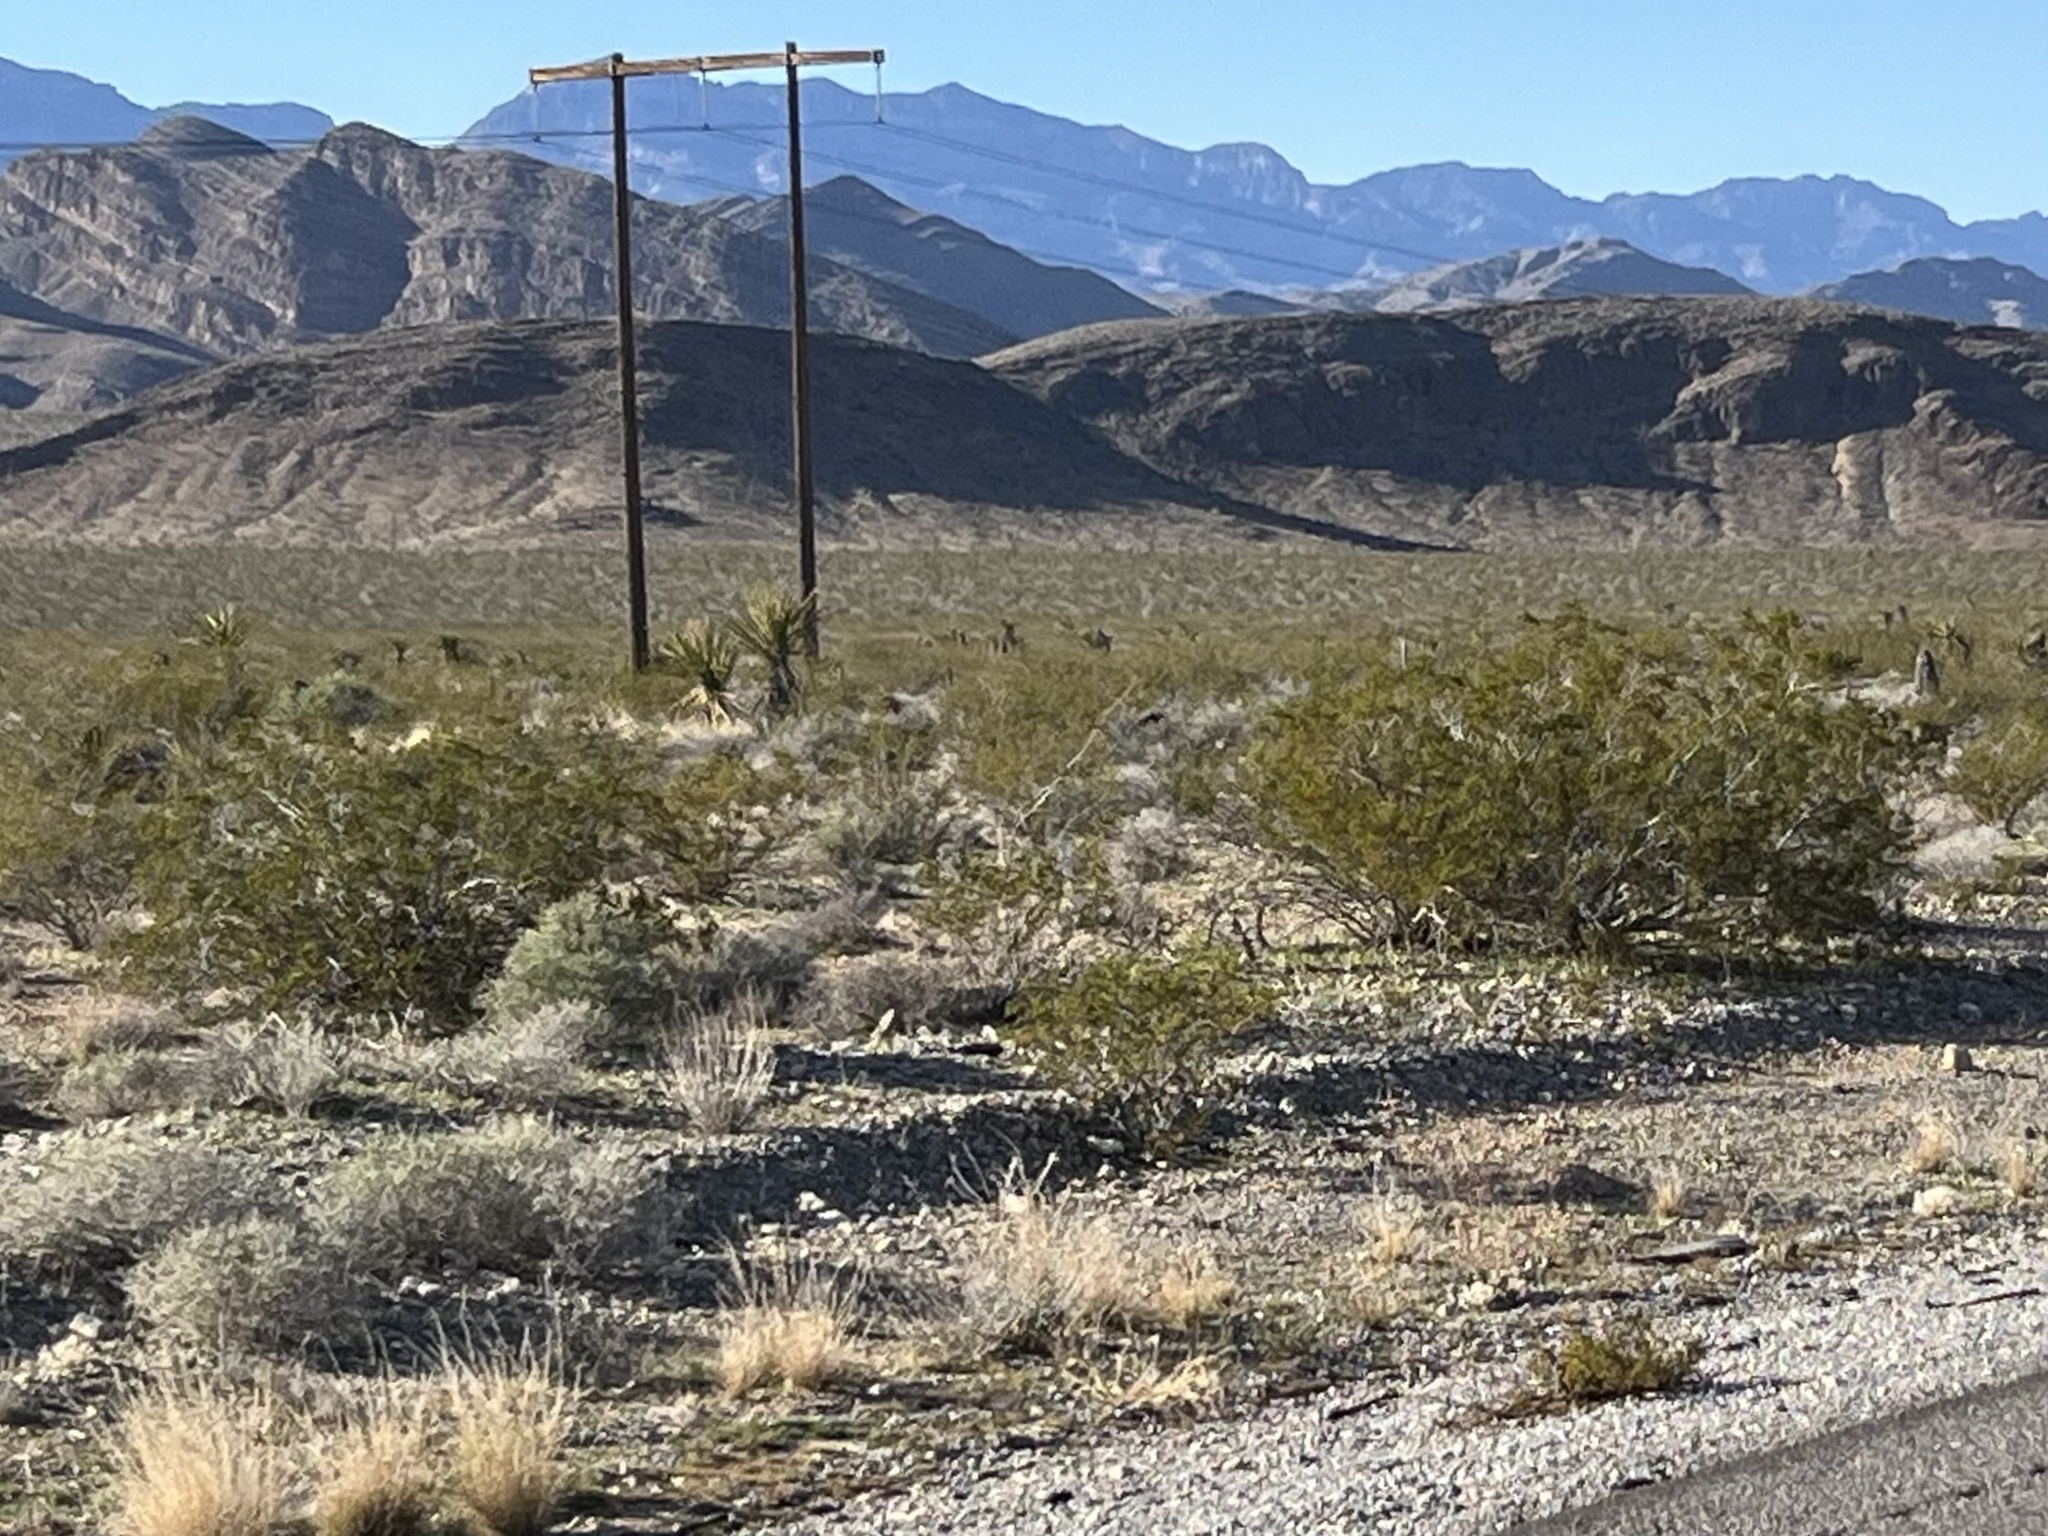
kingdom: Plantae
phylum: Tracheophyta
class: Magnoliopsida
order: Zygophyllales
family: Zygophyllaceae
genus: Larrea
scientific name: Larrea tridentata
